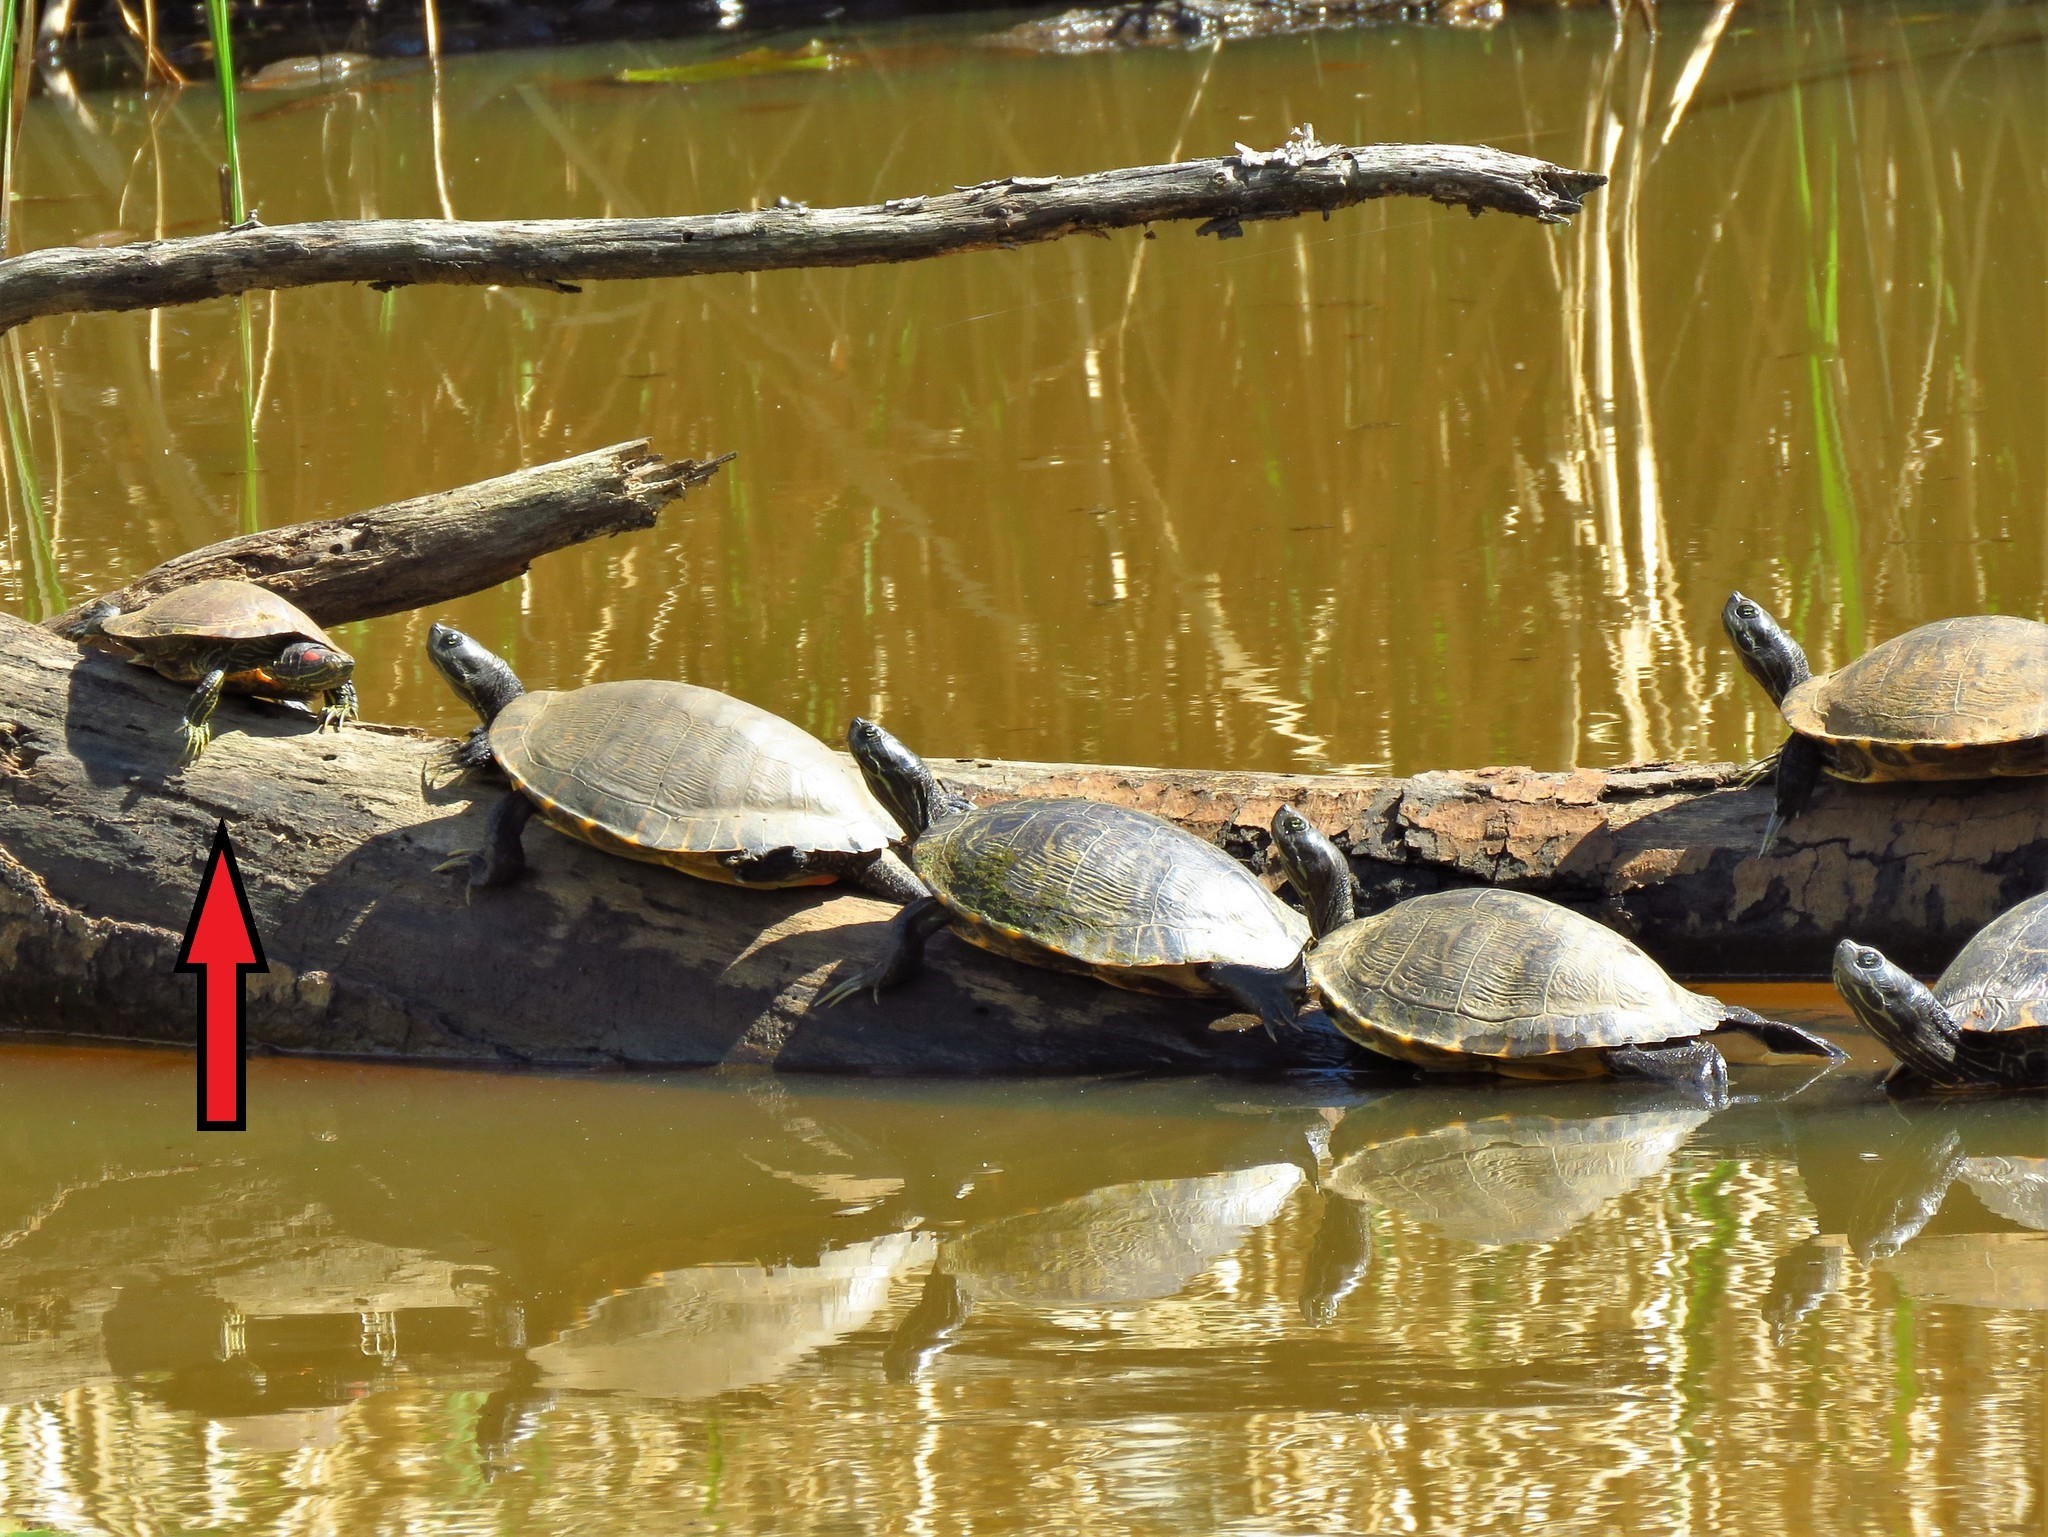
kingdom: Animalia
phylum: Chordata
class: Testudines
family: Emydidae
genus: Trachemys
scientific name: Trachemys scripta
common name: Slider
